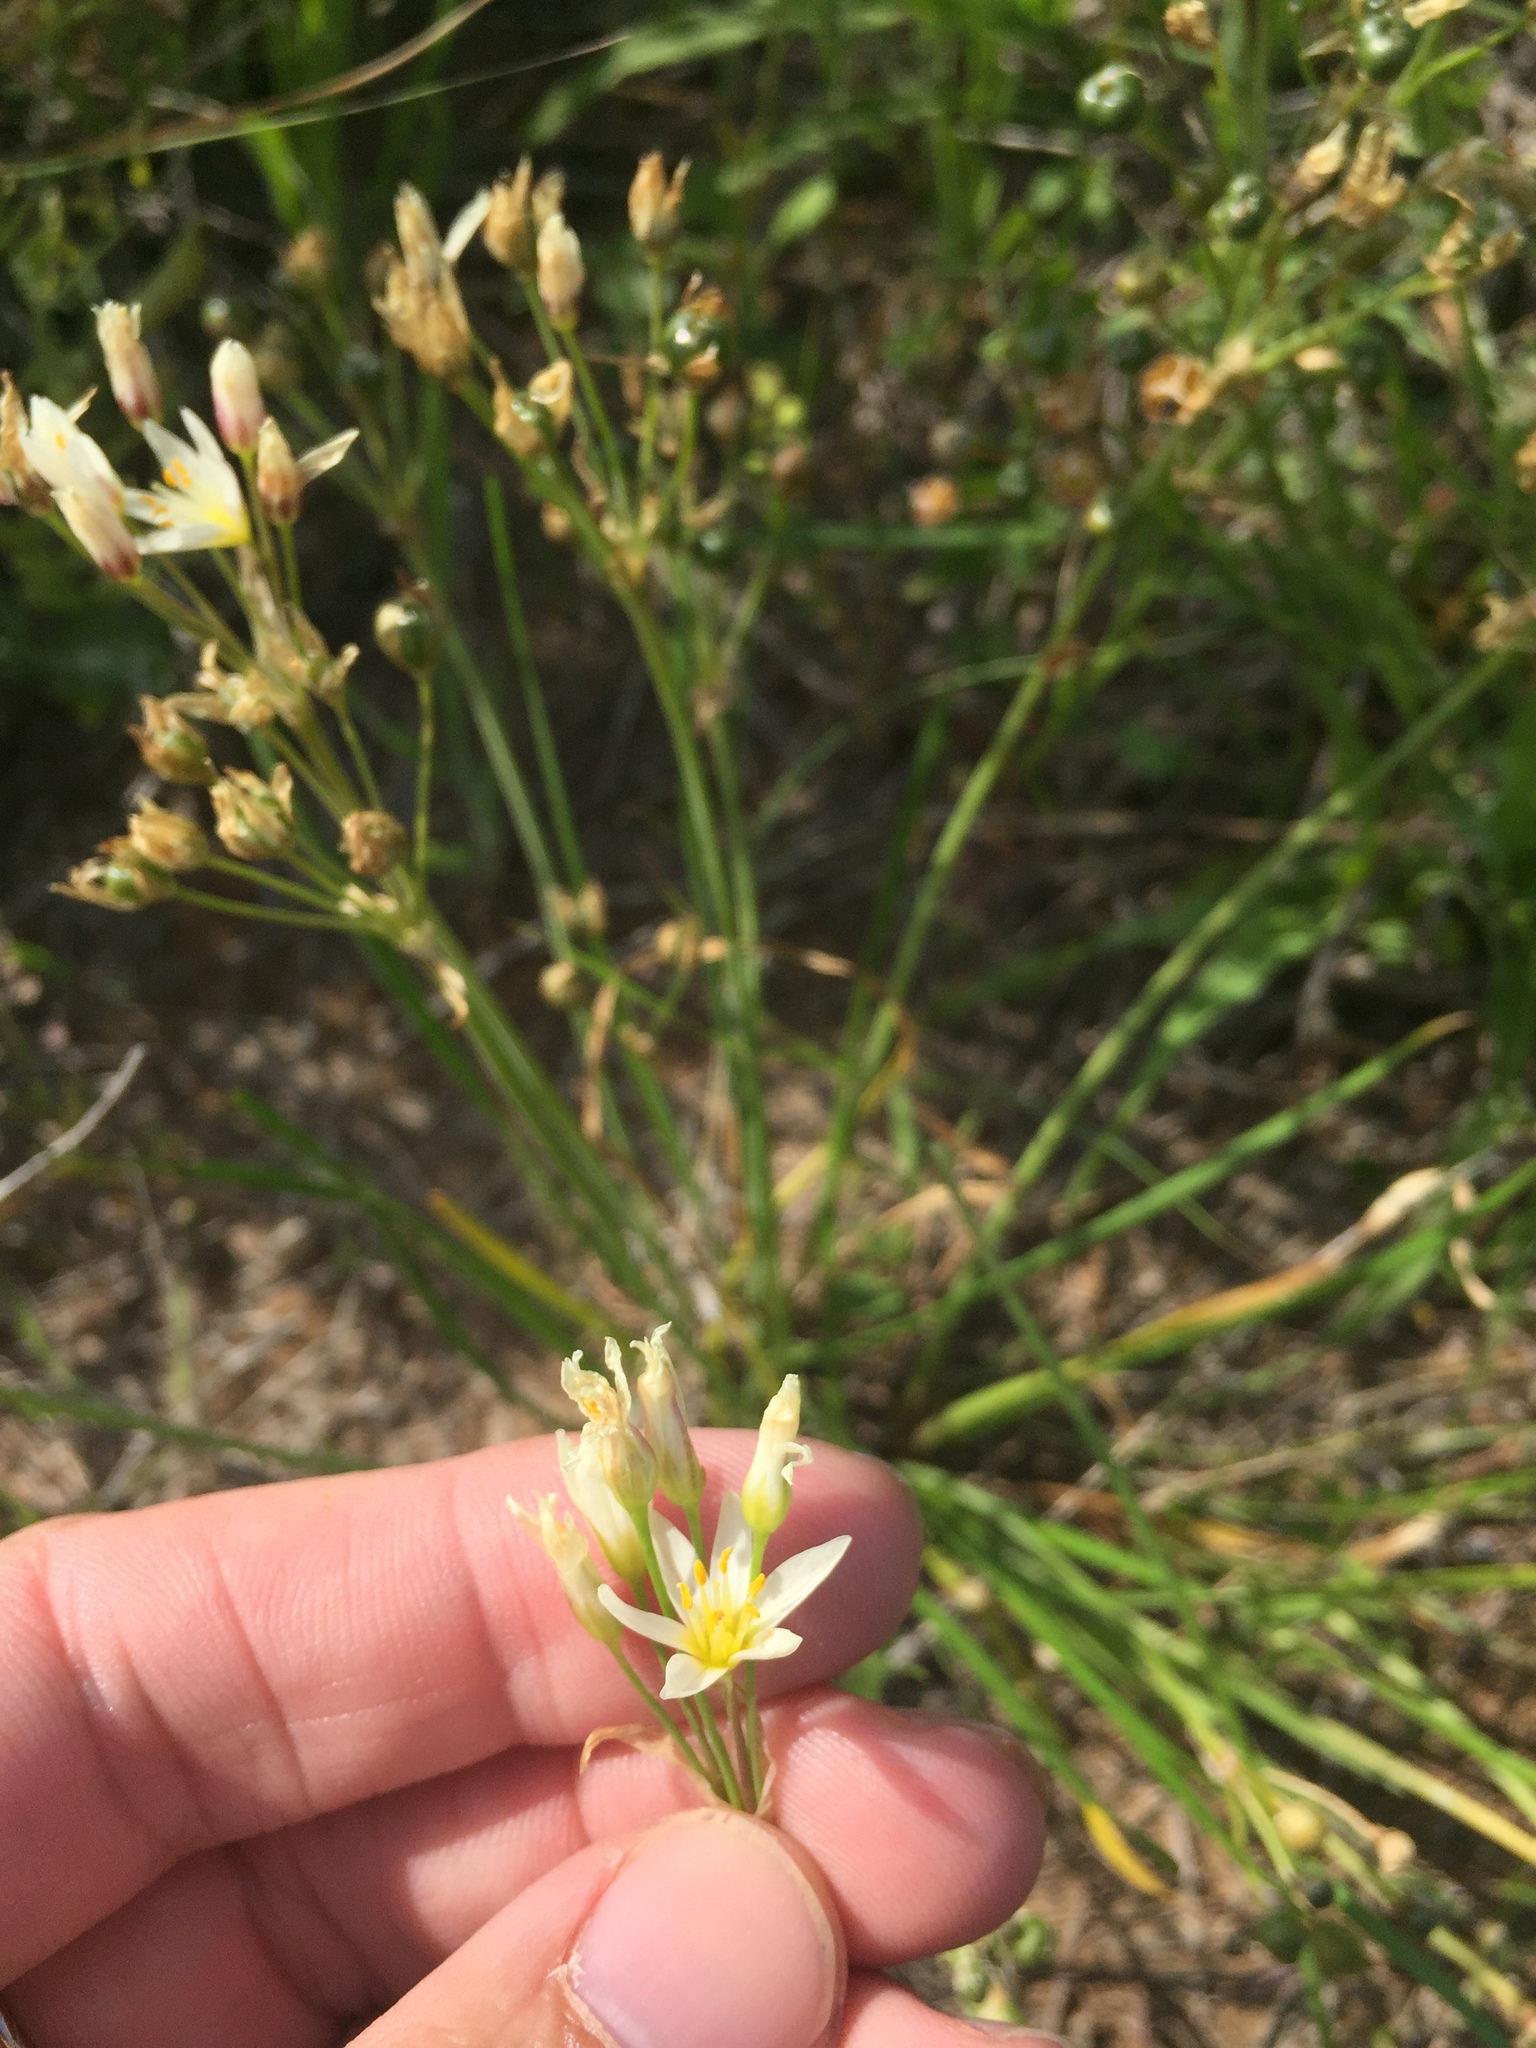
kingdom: Plantae
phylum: Tracheophyta
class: Liliopsida
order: Asparagales
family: Amaryllidaceae
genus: Nothoscordum
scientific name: Nothoscordum bivalve
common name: Crow-poison
